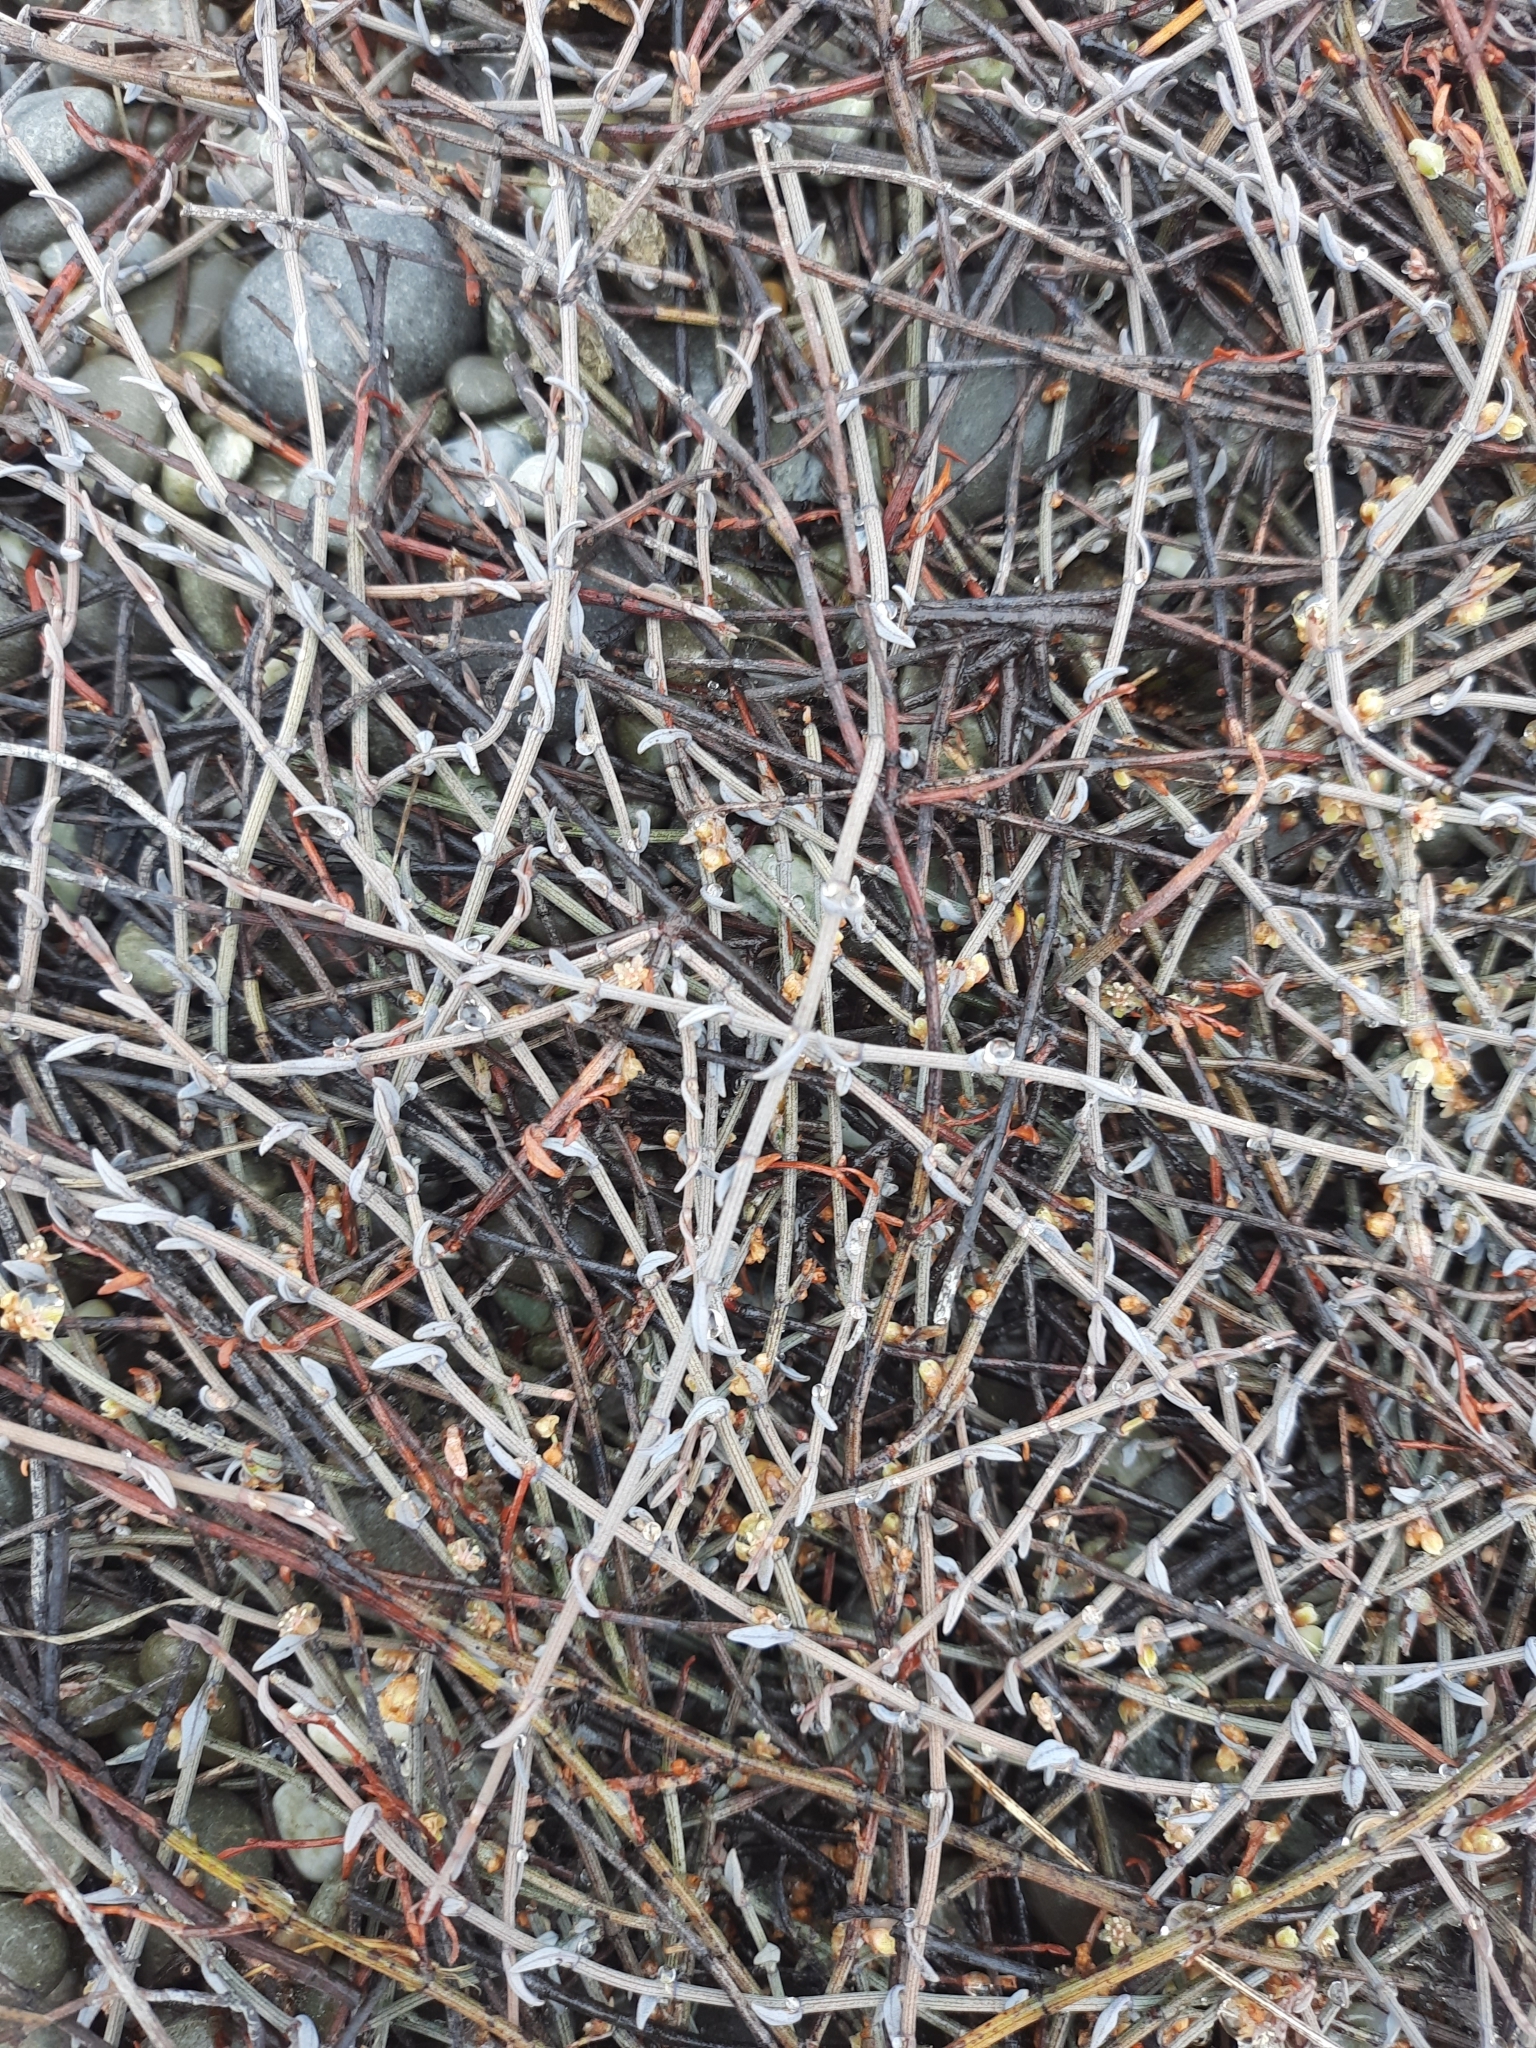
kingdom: Plantae
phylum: Tracheophyta
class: Magnoliopsida
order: Caryophyllales
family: Polygonaceae
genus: Muehlenbeckia
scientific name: Muehlenbeckia ephedroides
